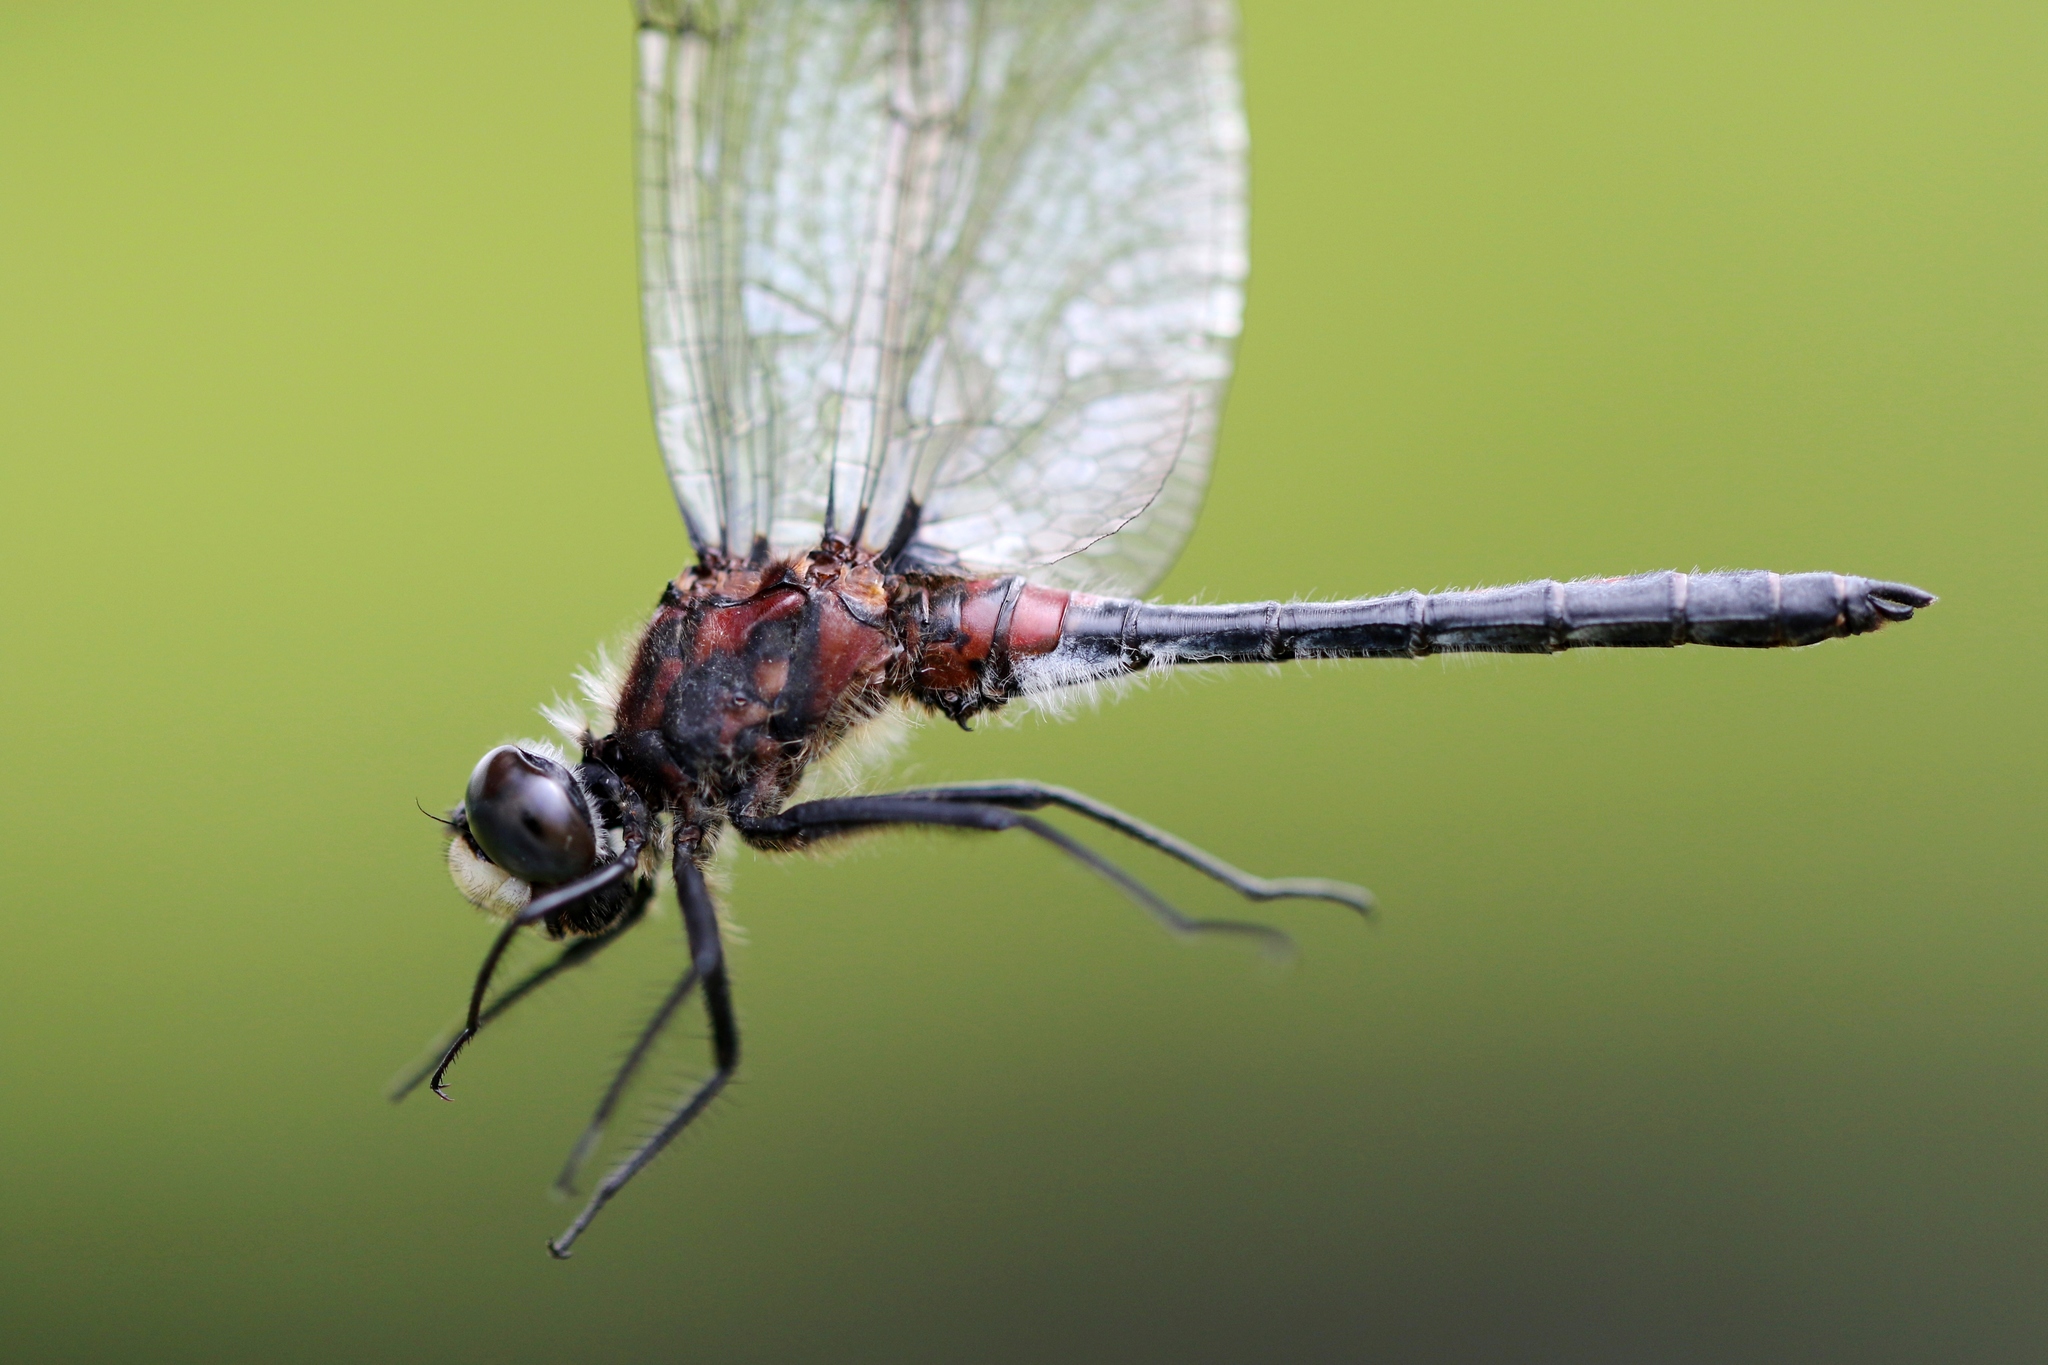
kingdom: Animalia
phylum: Arthropoda
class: Insecta
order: Odonata
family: Libellulidae
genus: Leucorrhinia
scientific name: Leucorrhinia proxima
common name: Belted whiteface
